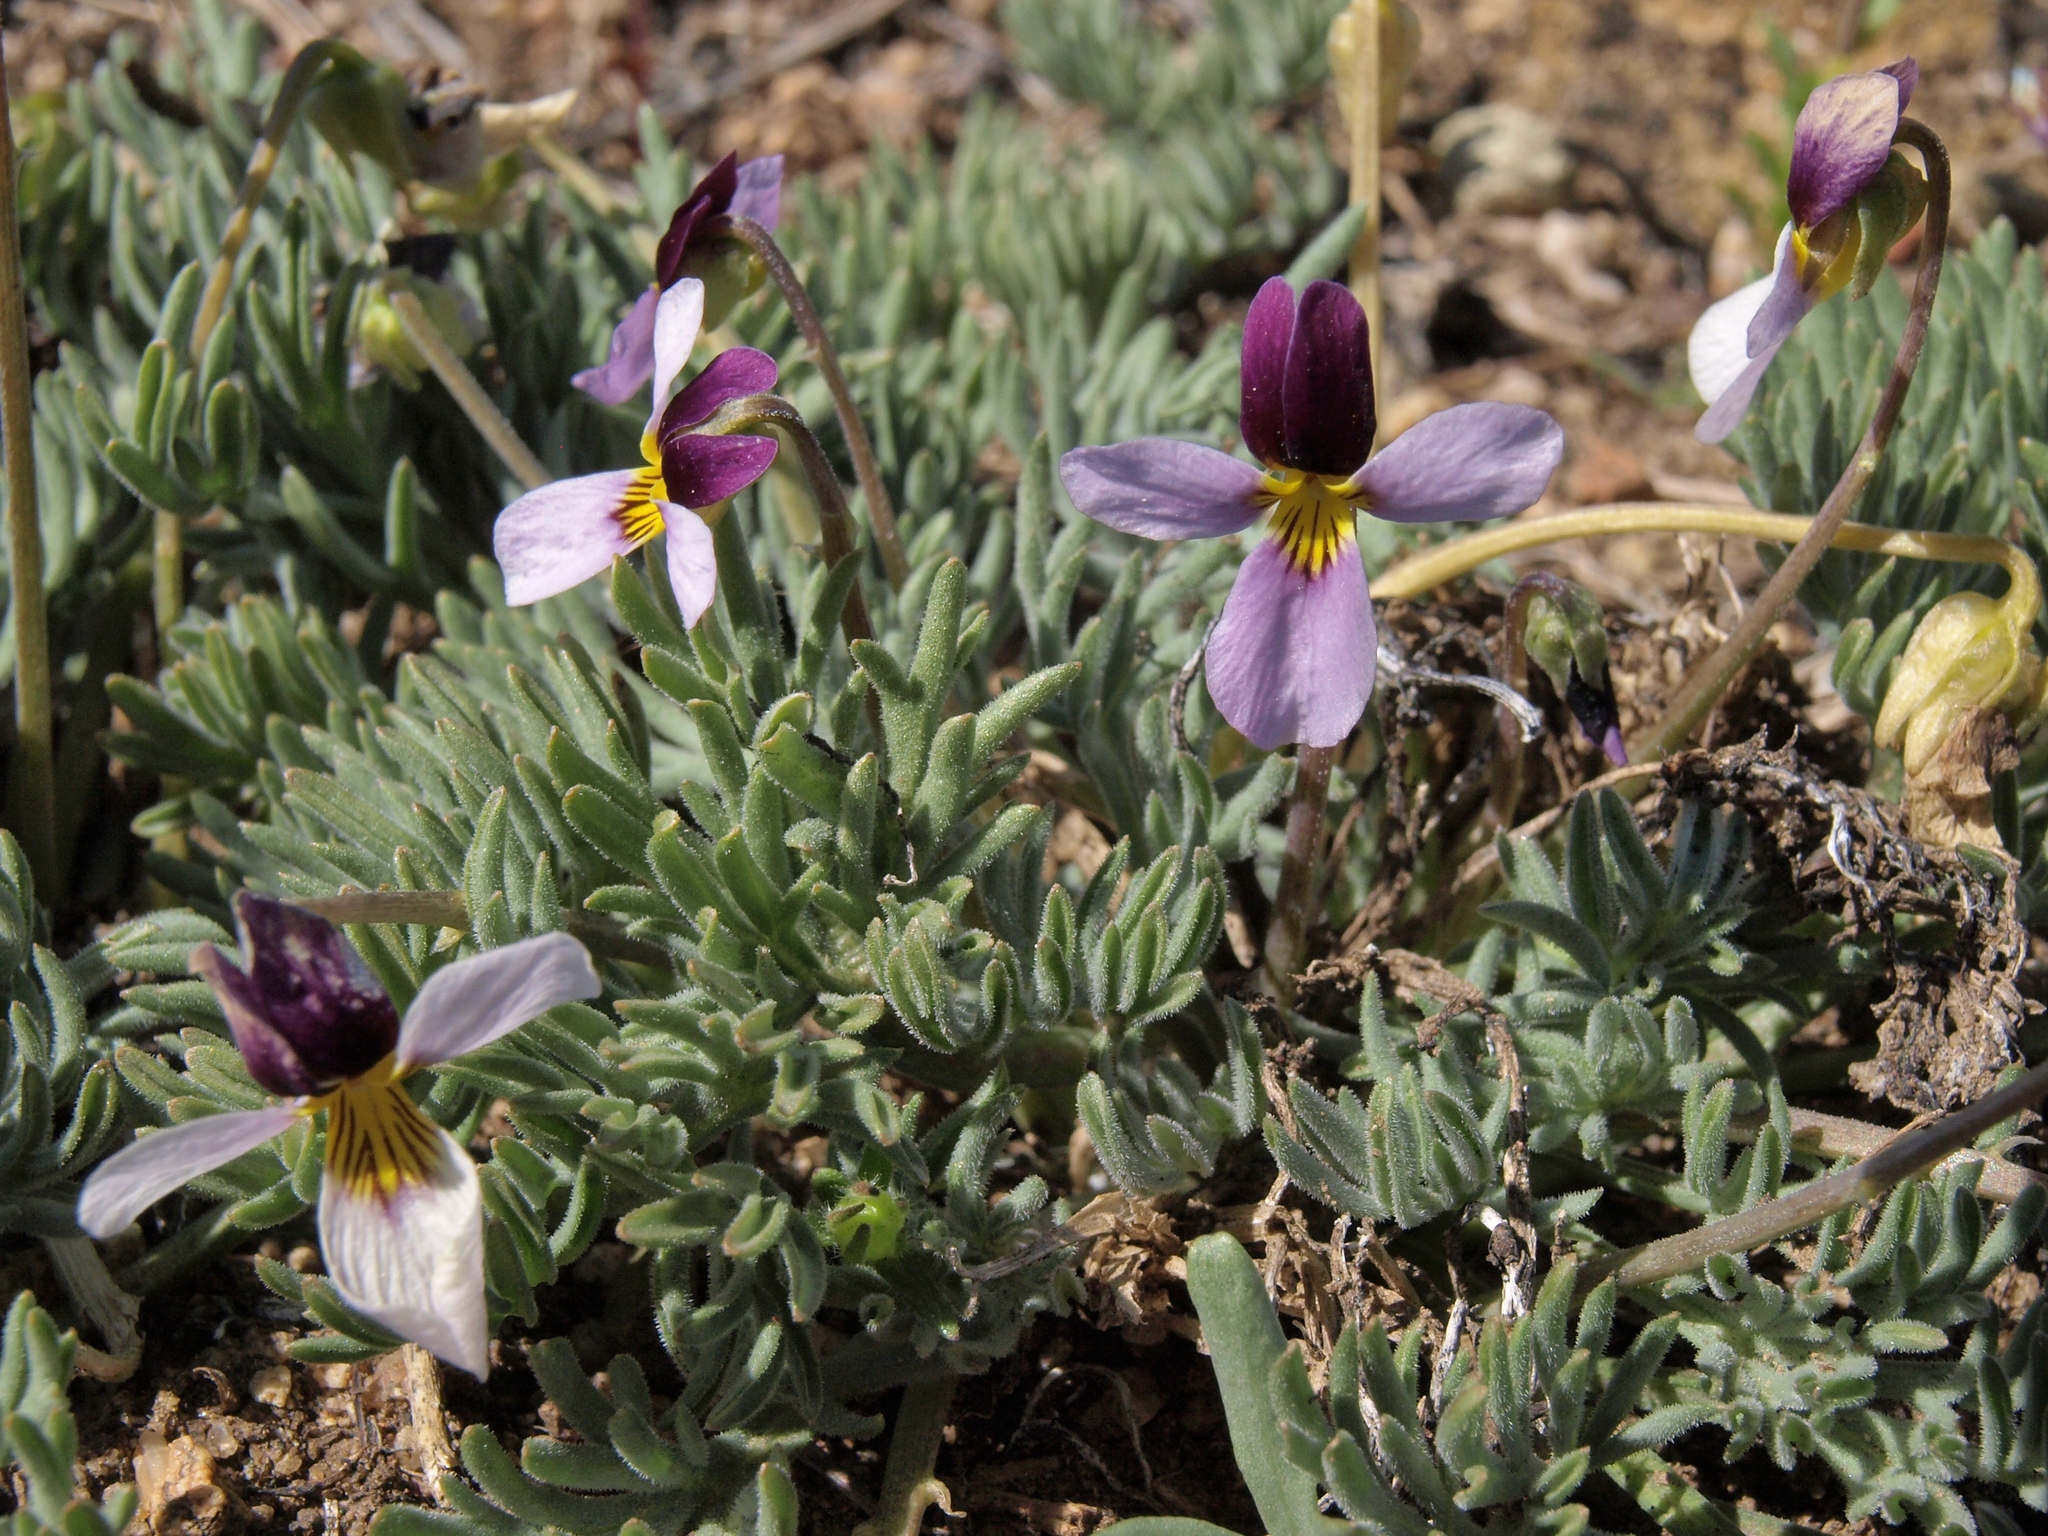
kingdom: Plantae
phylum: Tracheophyta
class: Magnoliopsida
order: Malpighiales
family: Violaceae
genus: Viola
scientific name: Viola beckwithii
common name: Beckwith's violet
